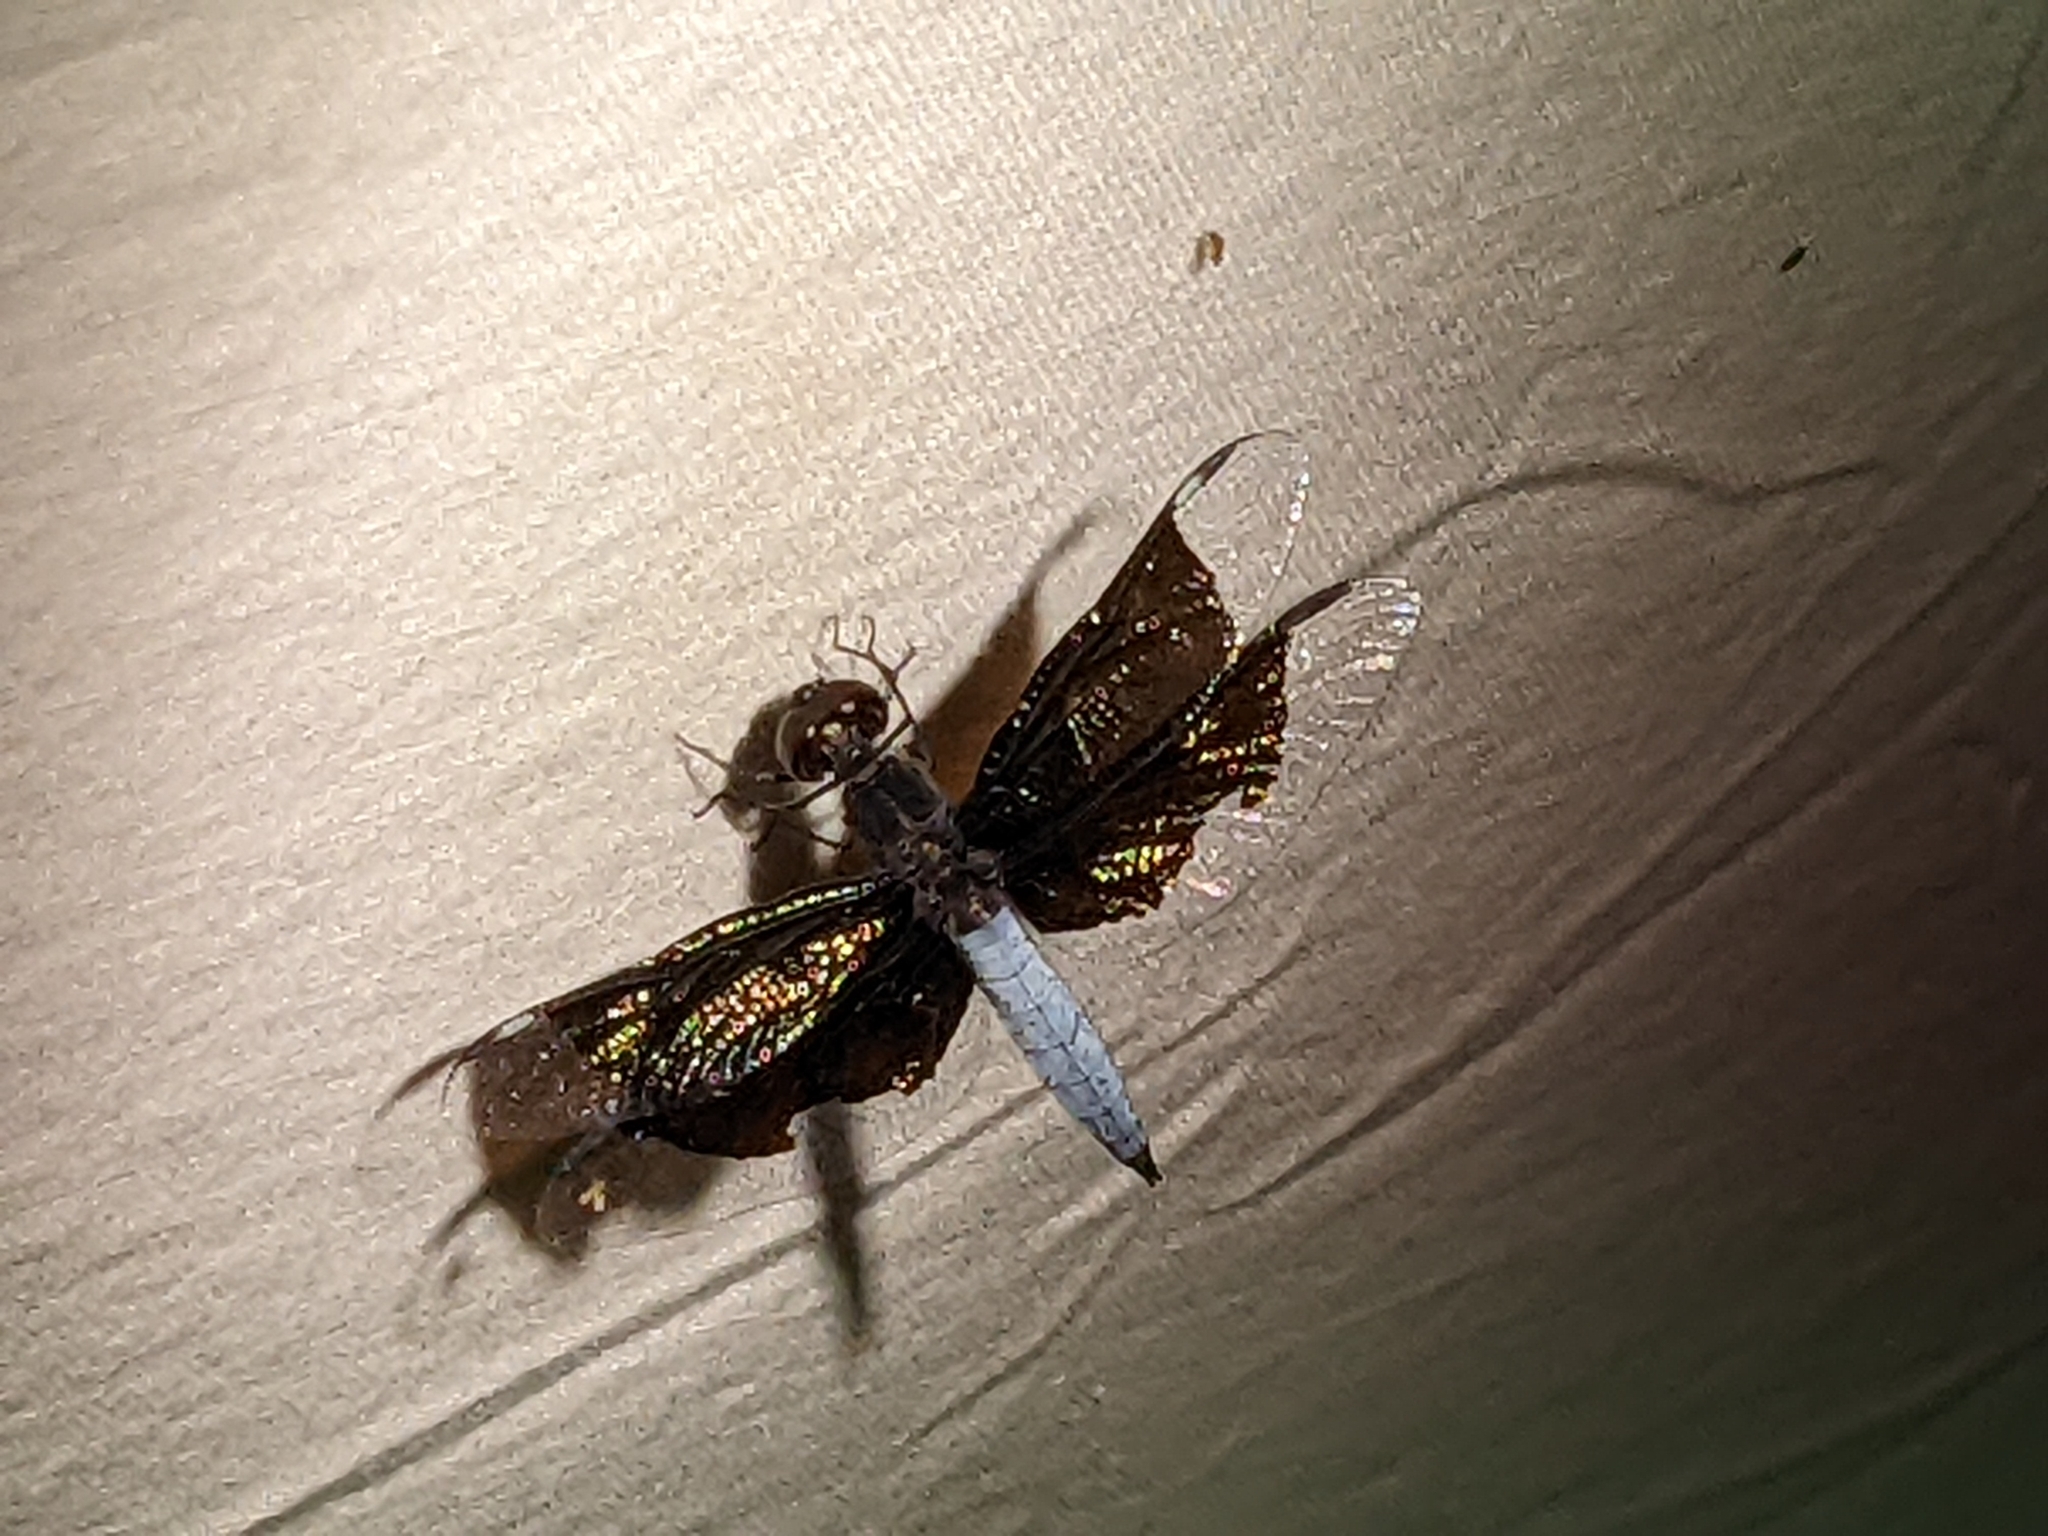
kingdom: Animalia
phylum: Arthropoda
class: Insecta
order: Odonata
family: Libellulidae
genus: Palpopleura
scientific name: Palpopleura lucia
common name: Lucia widow
